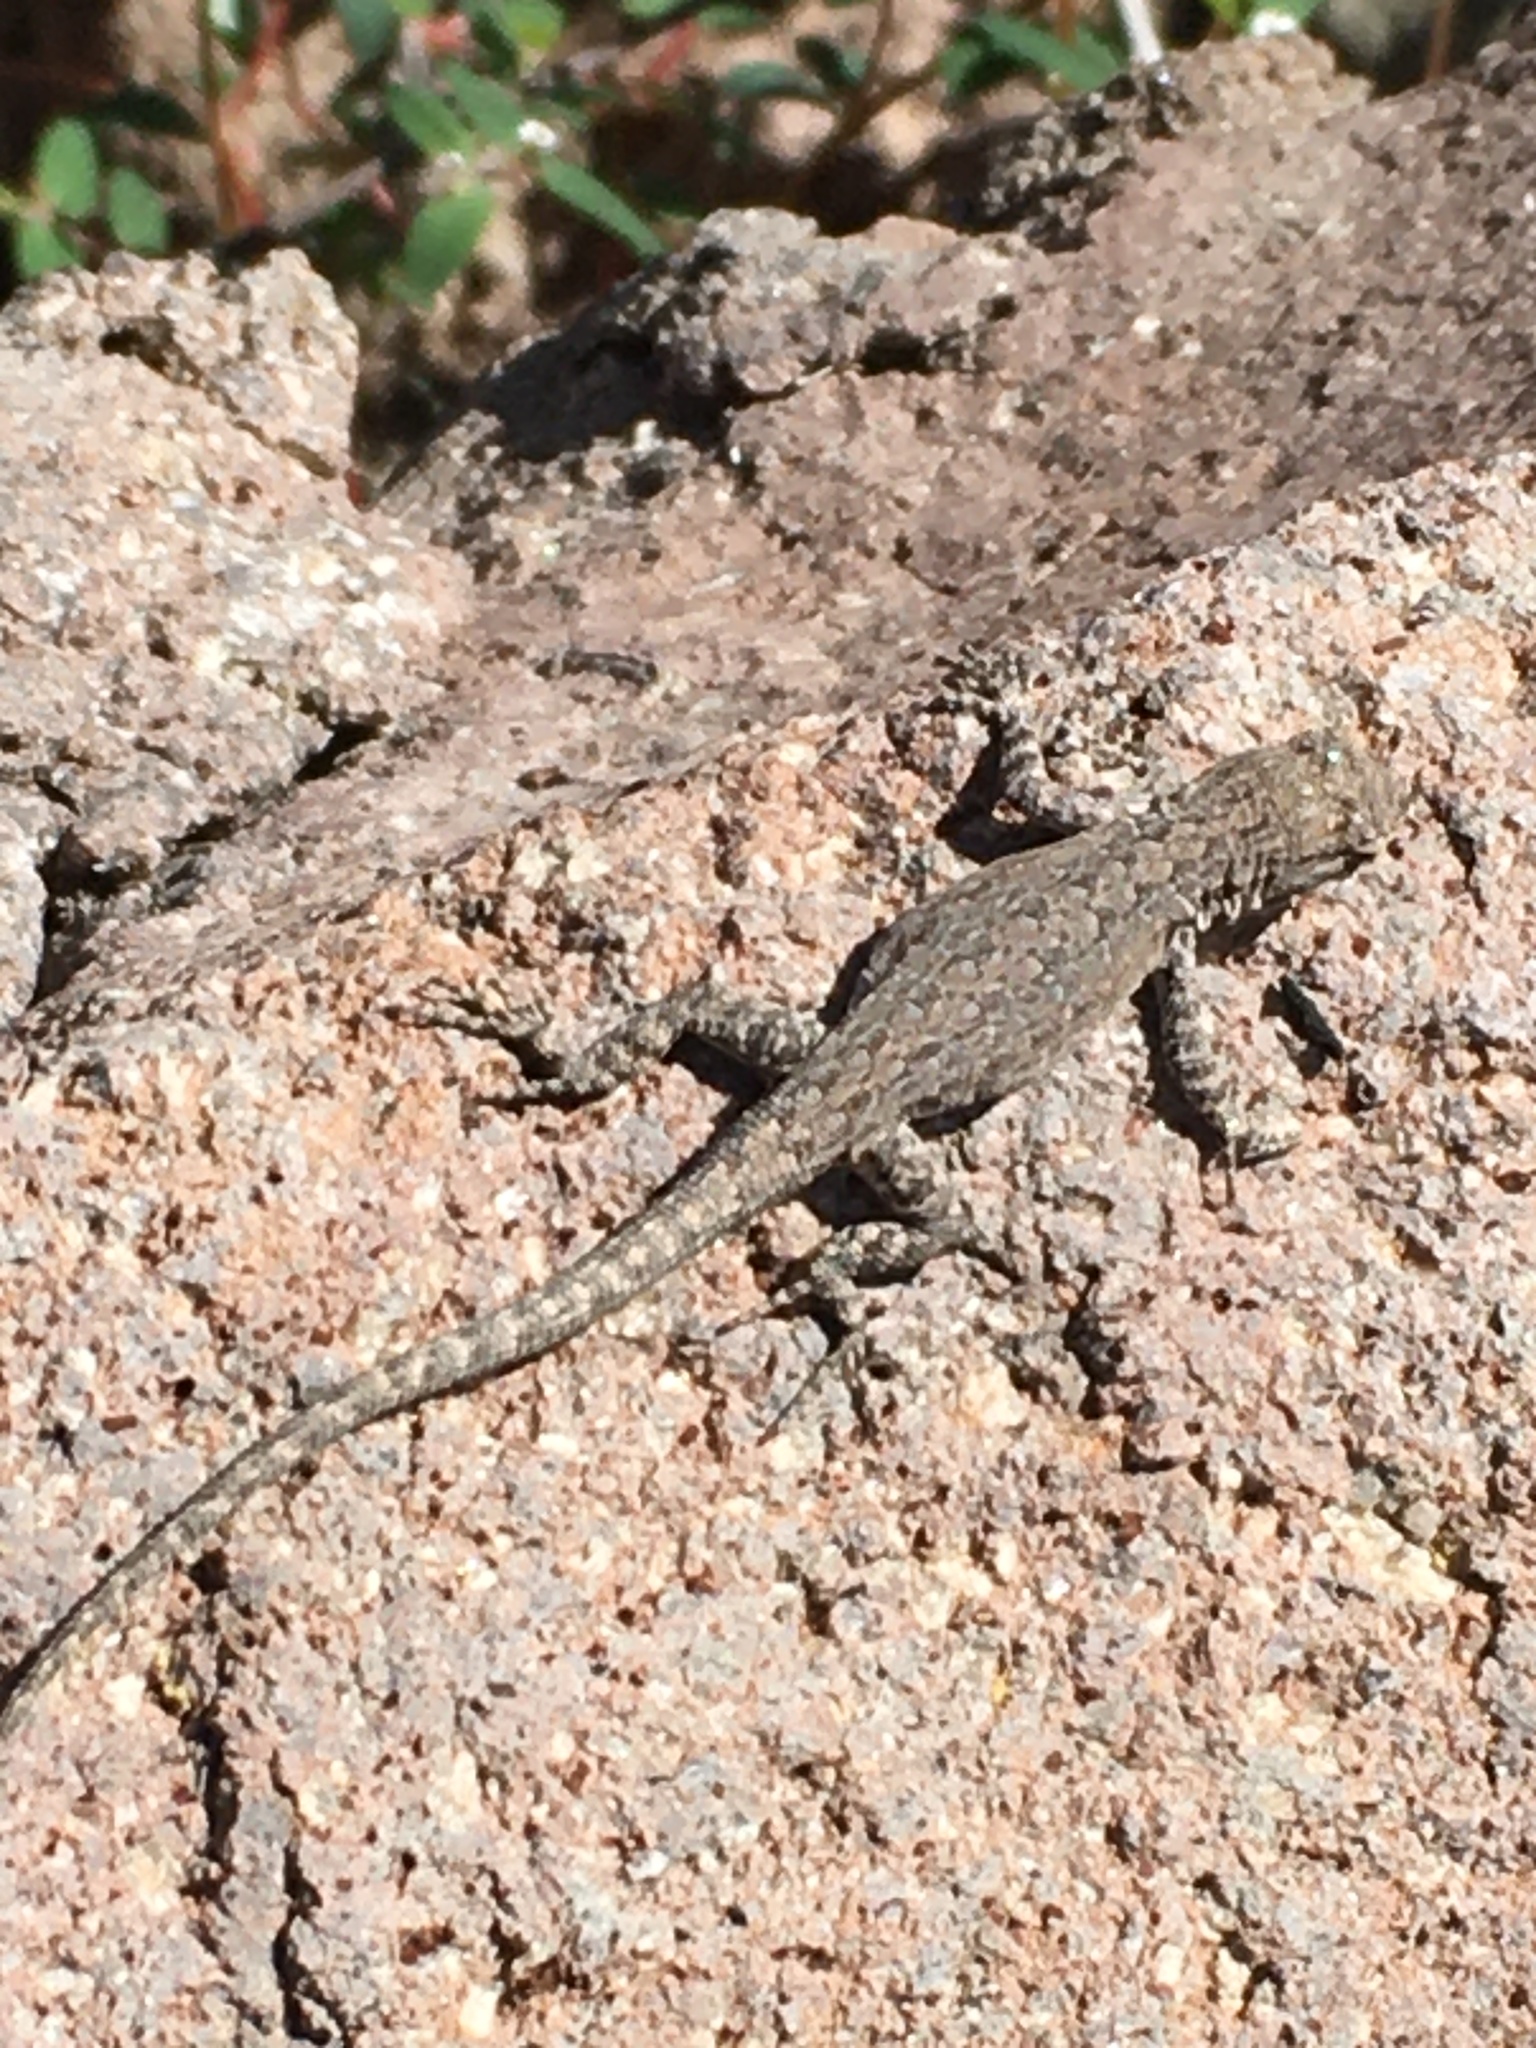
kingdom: Animalia
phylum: Chordata
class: Squamata
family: Phrynosomatidae
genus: Urosaurus
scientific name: Urosaurus nigricauda
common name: Baja california brush lizard
